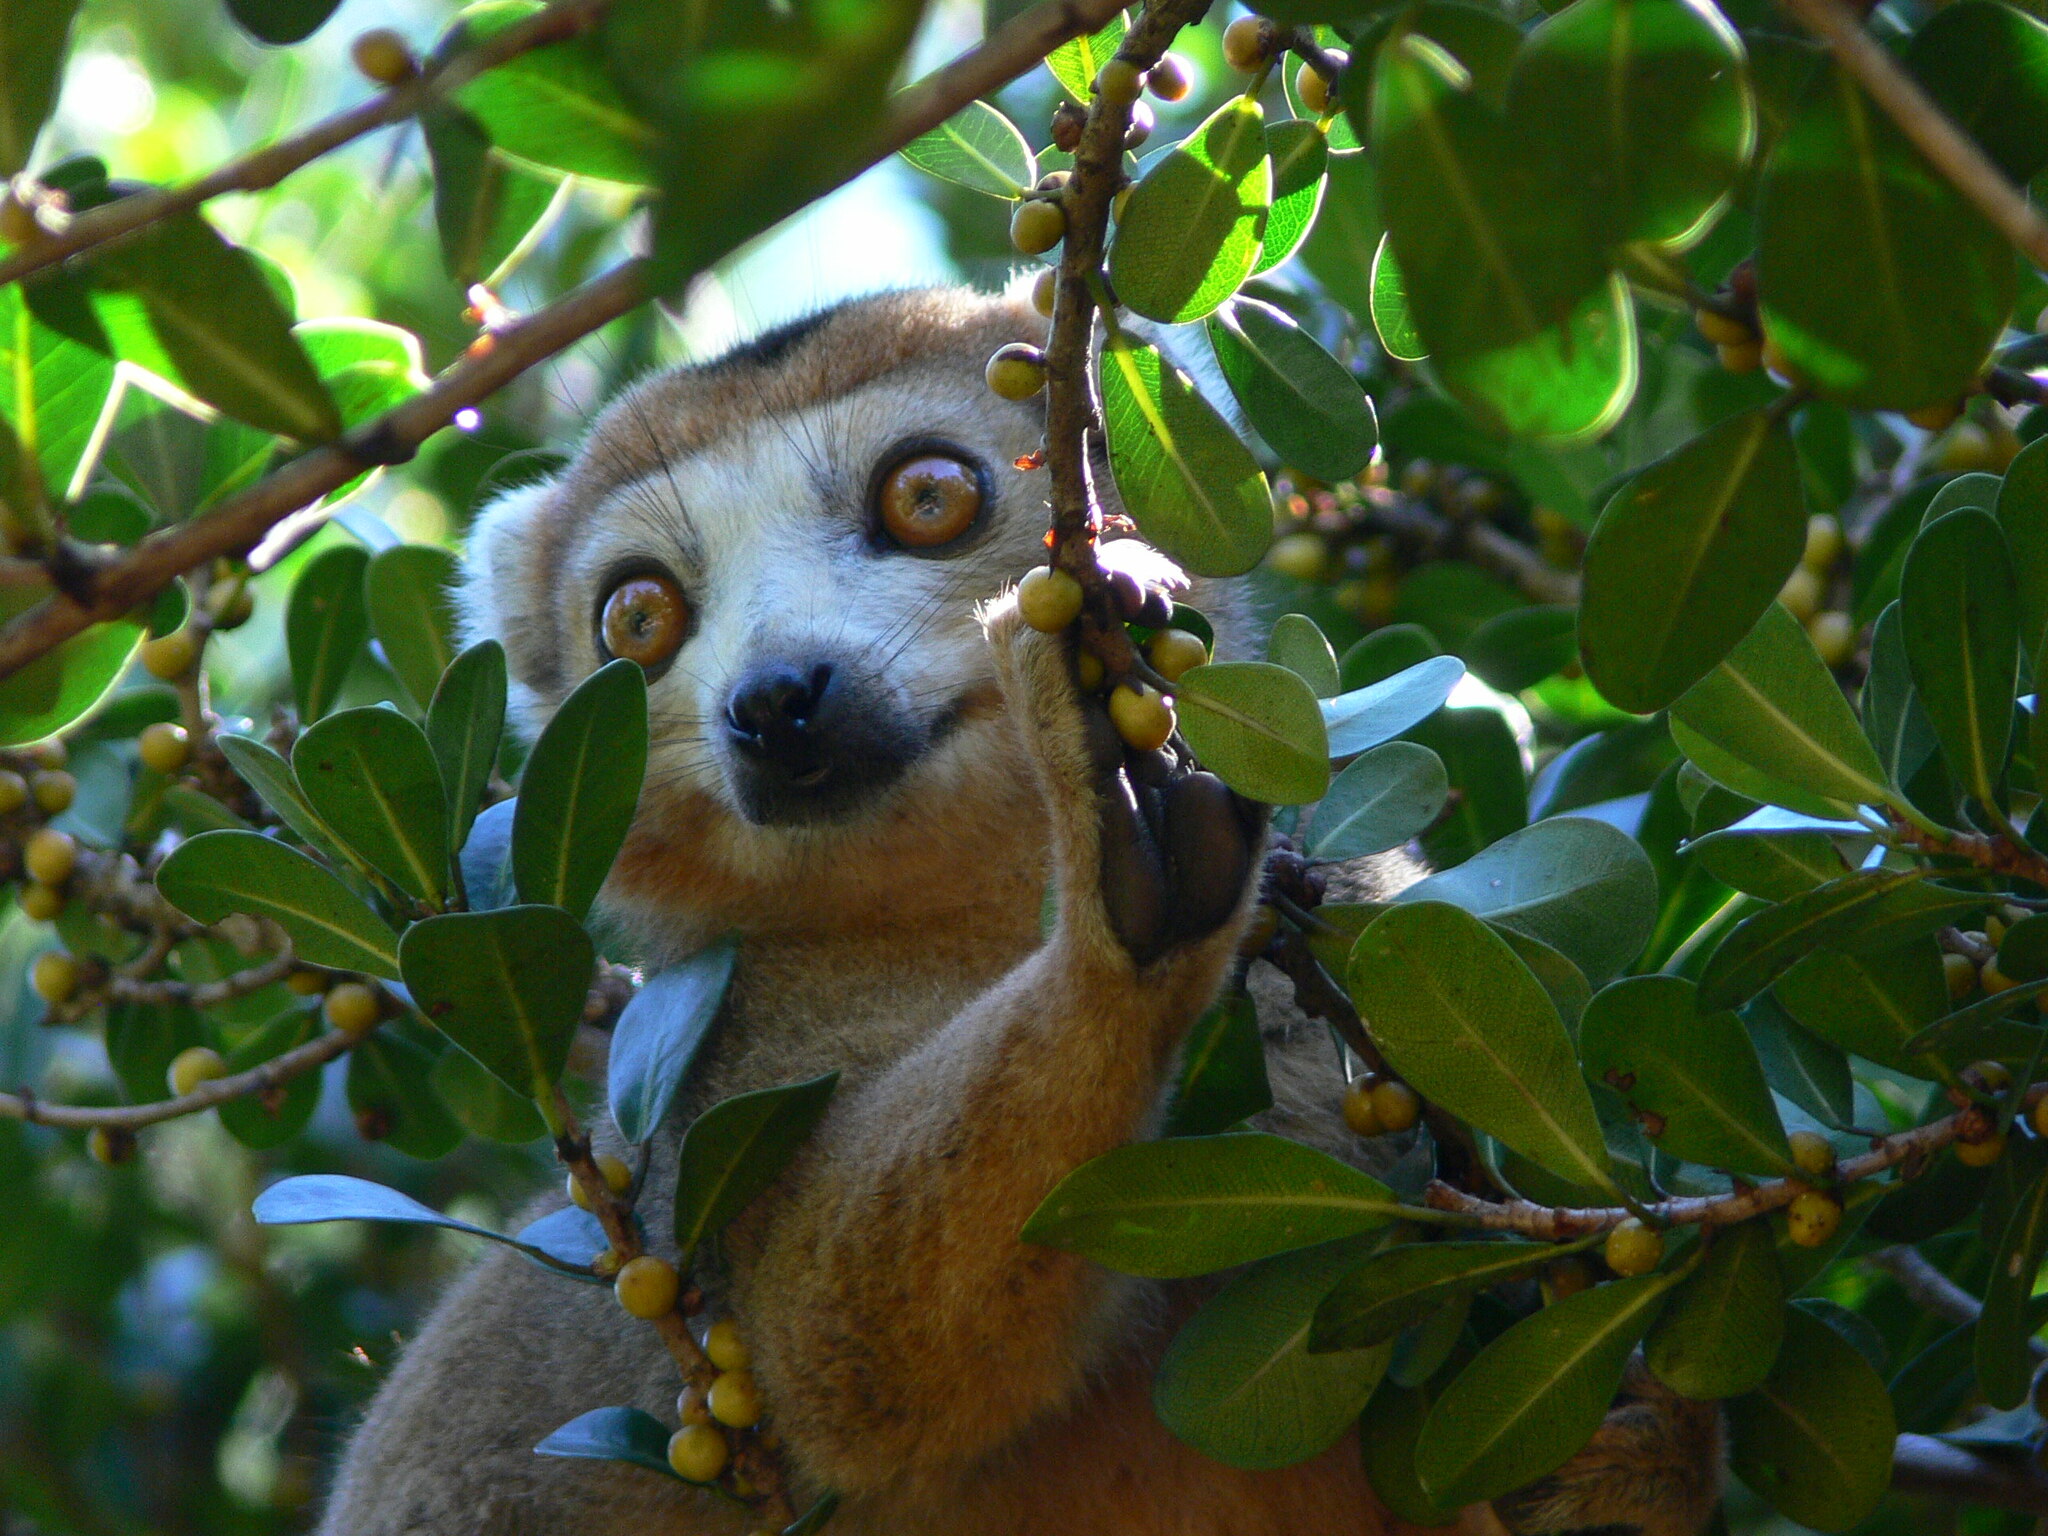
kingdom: Animalia
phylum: Chordata
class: Mammalia
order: Primates
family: Lemuridae
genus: Eulemur
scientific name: Eulemur coronatus
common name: Crowned lemur
